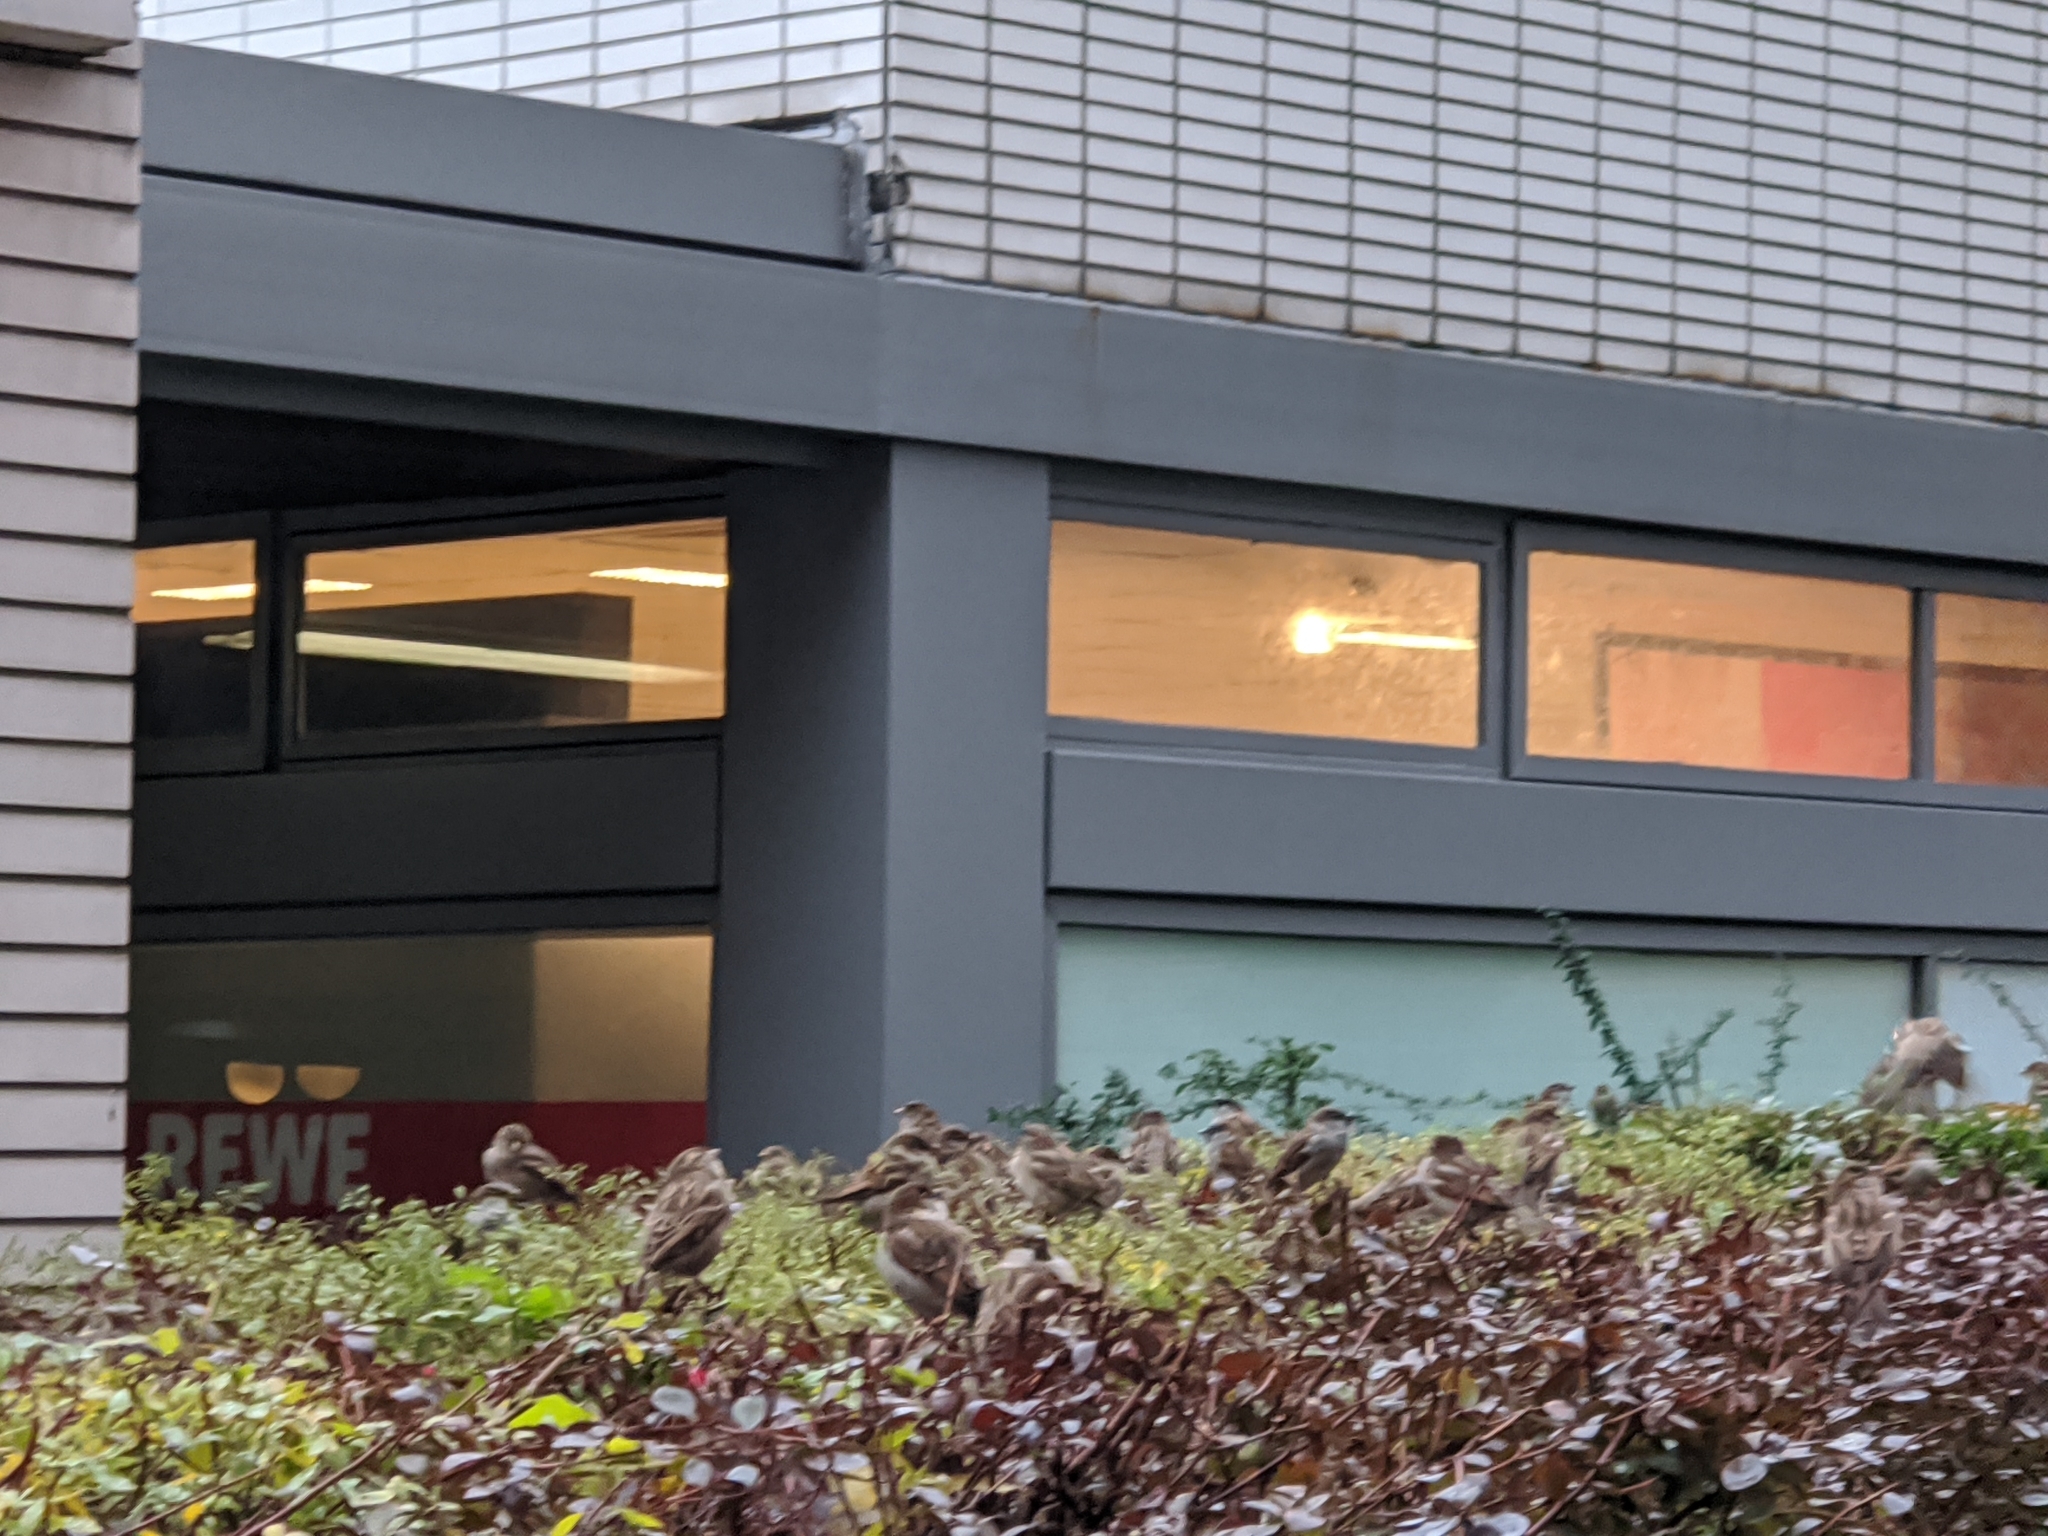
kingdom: Animalia
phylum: Chordata
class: Aves
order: Passeriformes
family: Passeridae
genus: Passer
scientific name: Passer domesticus
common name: House sparrow
